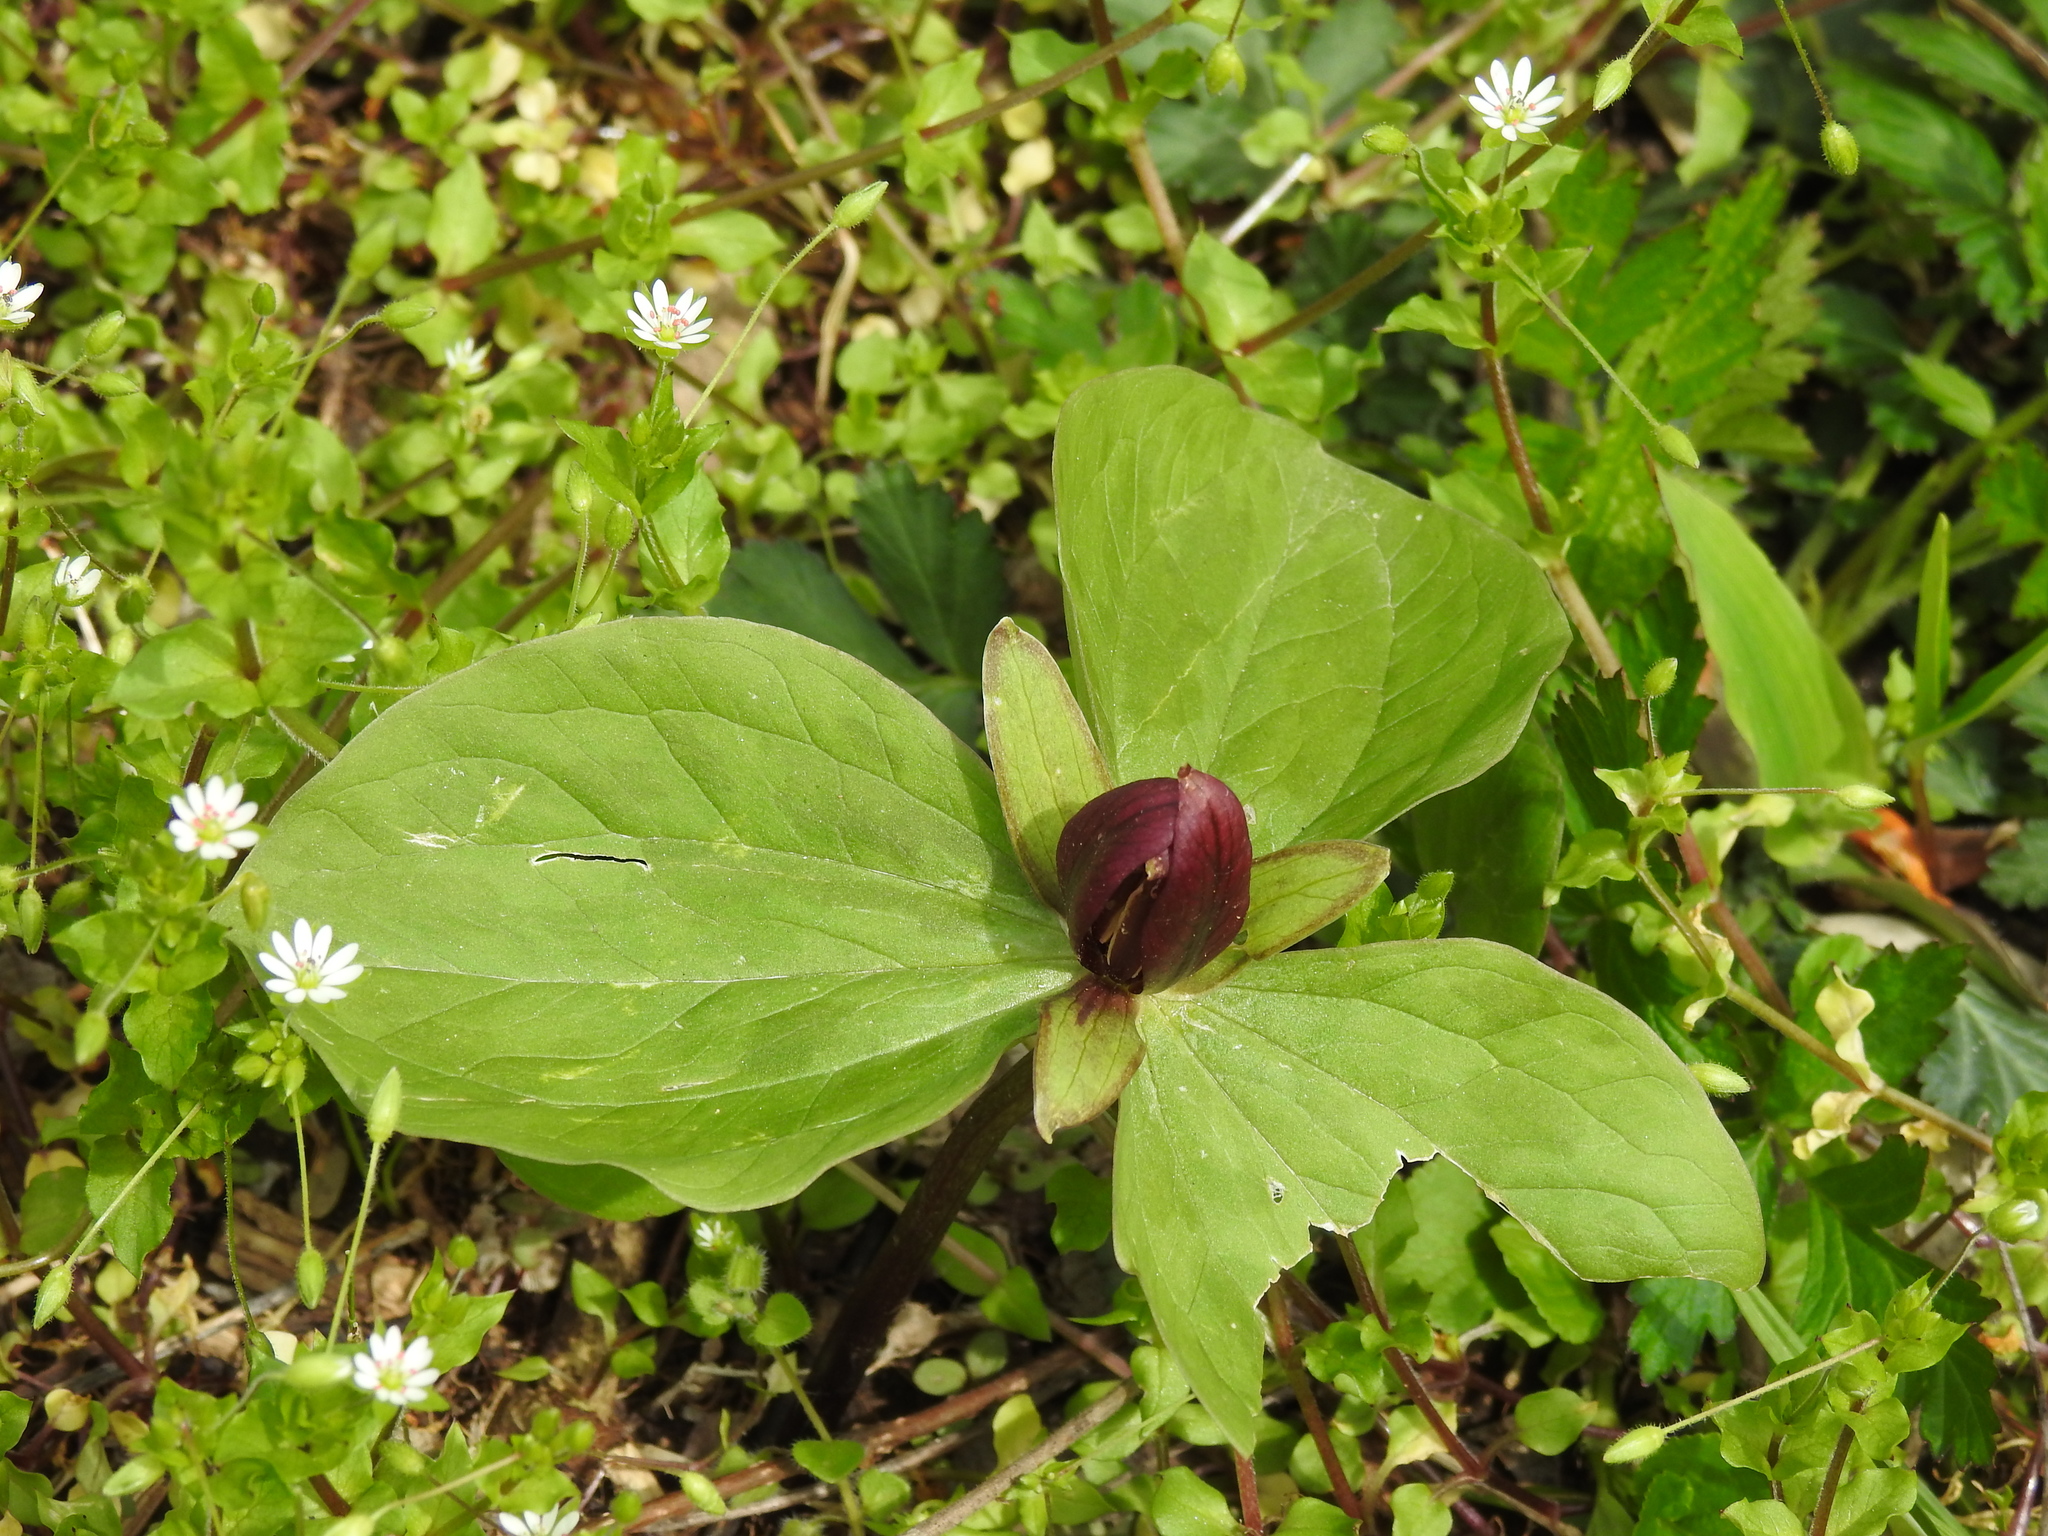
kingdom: Plantae
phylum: Tracheophyta
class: Liliopsida
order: Liliales
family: Melanthiaceae
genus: Trillium
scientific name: Trillium sessile
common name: Sessile trillium
